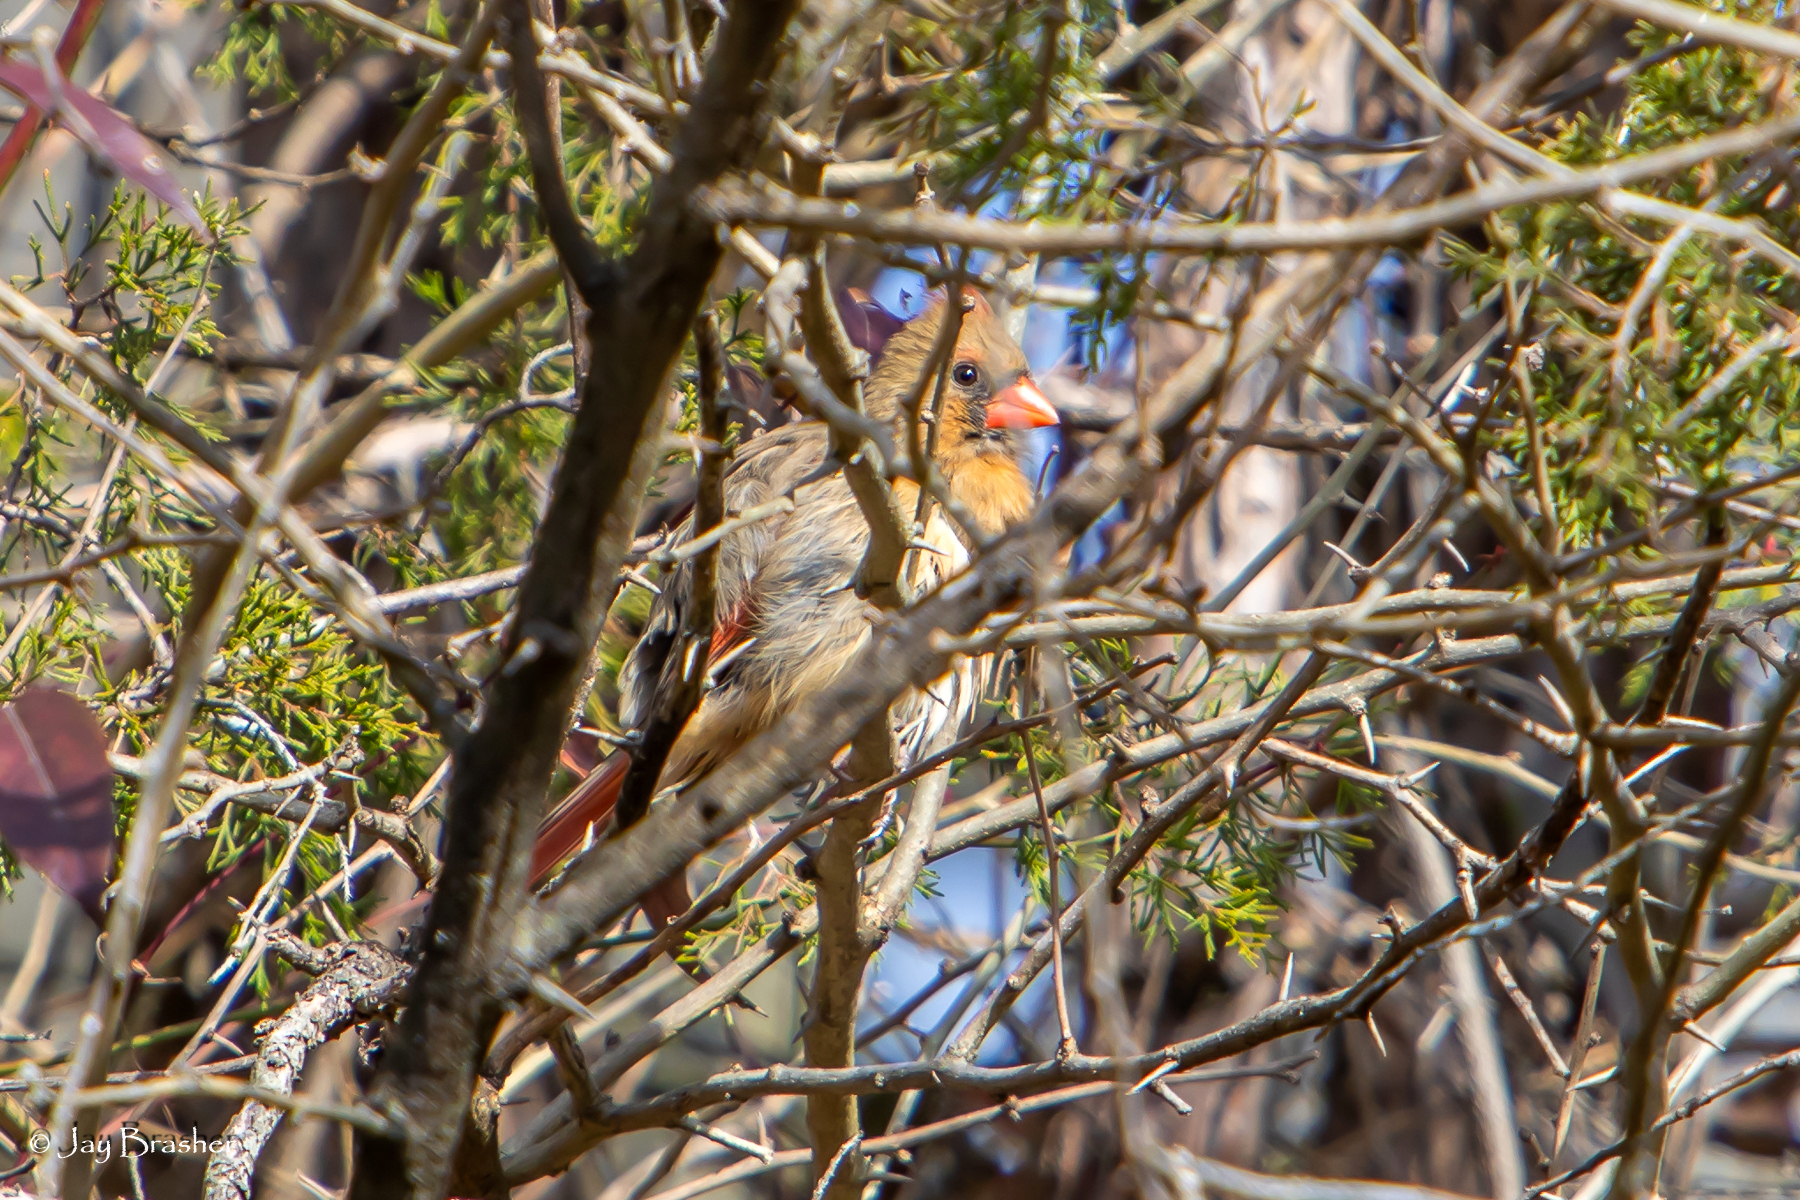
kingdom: Animalia
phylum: Chordata
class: Aves
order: Passeriformes
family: Cardinalidae
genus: Cardinalis
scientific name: Cardinalis cardinalis
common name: Northern cardinal
